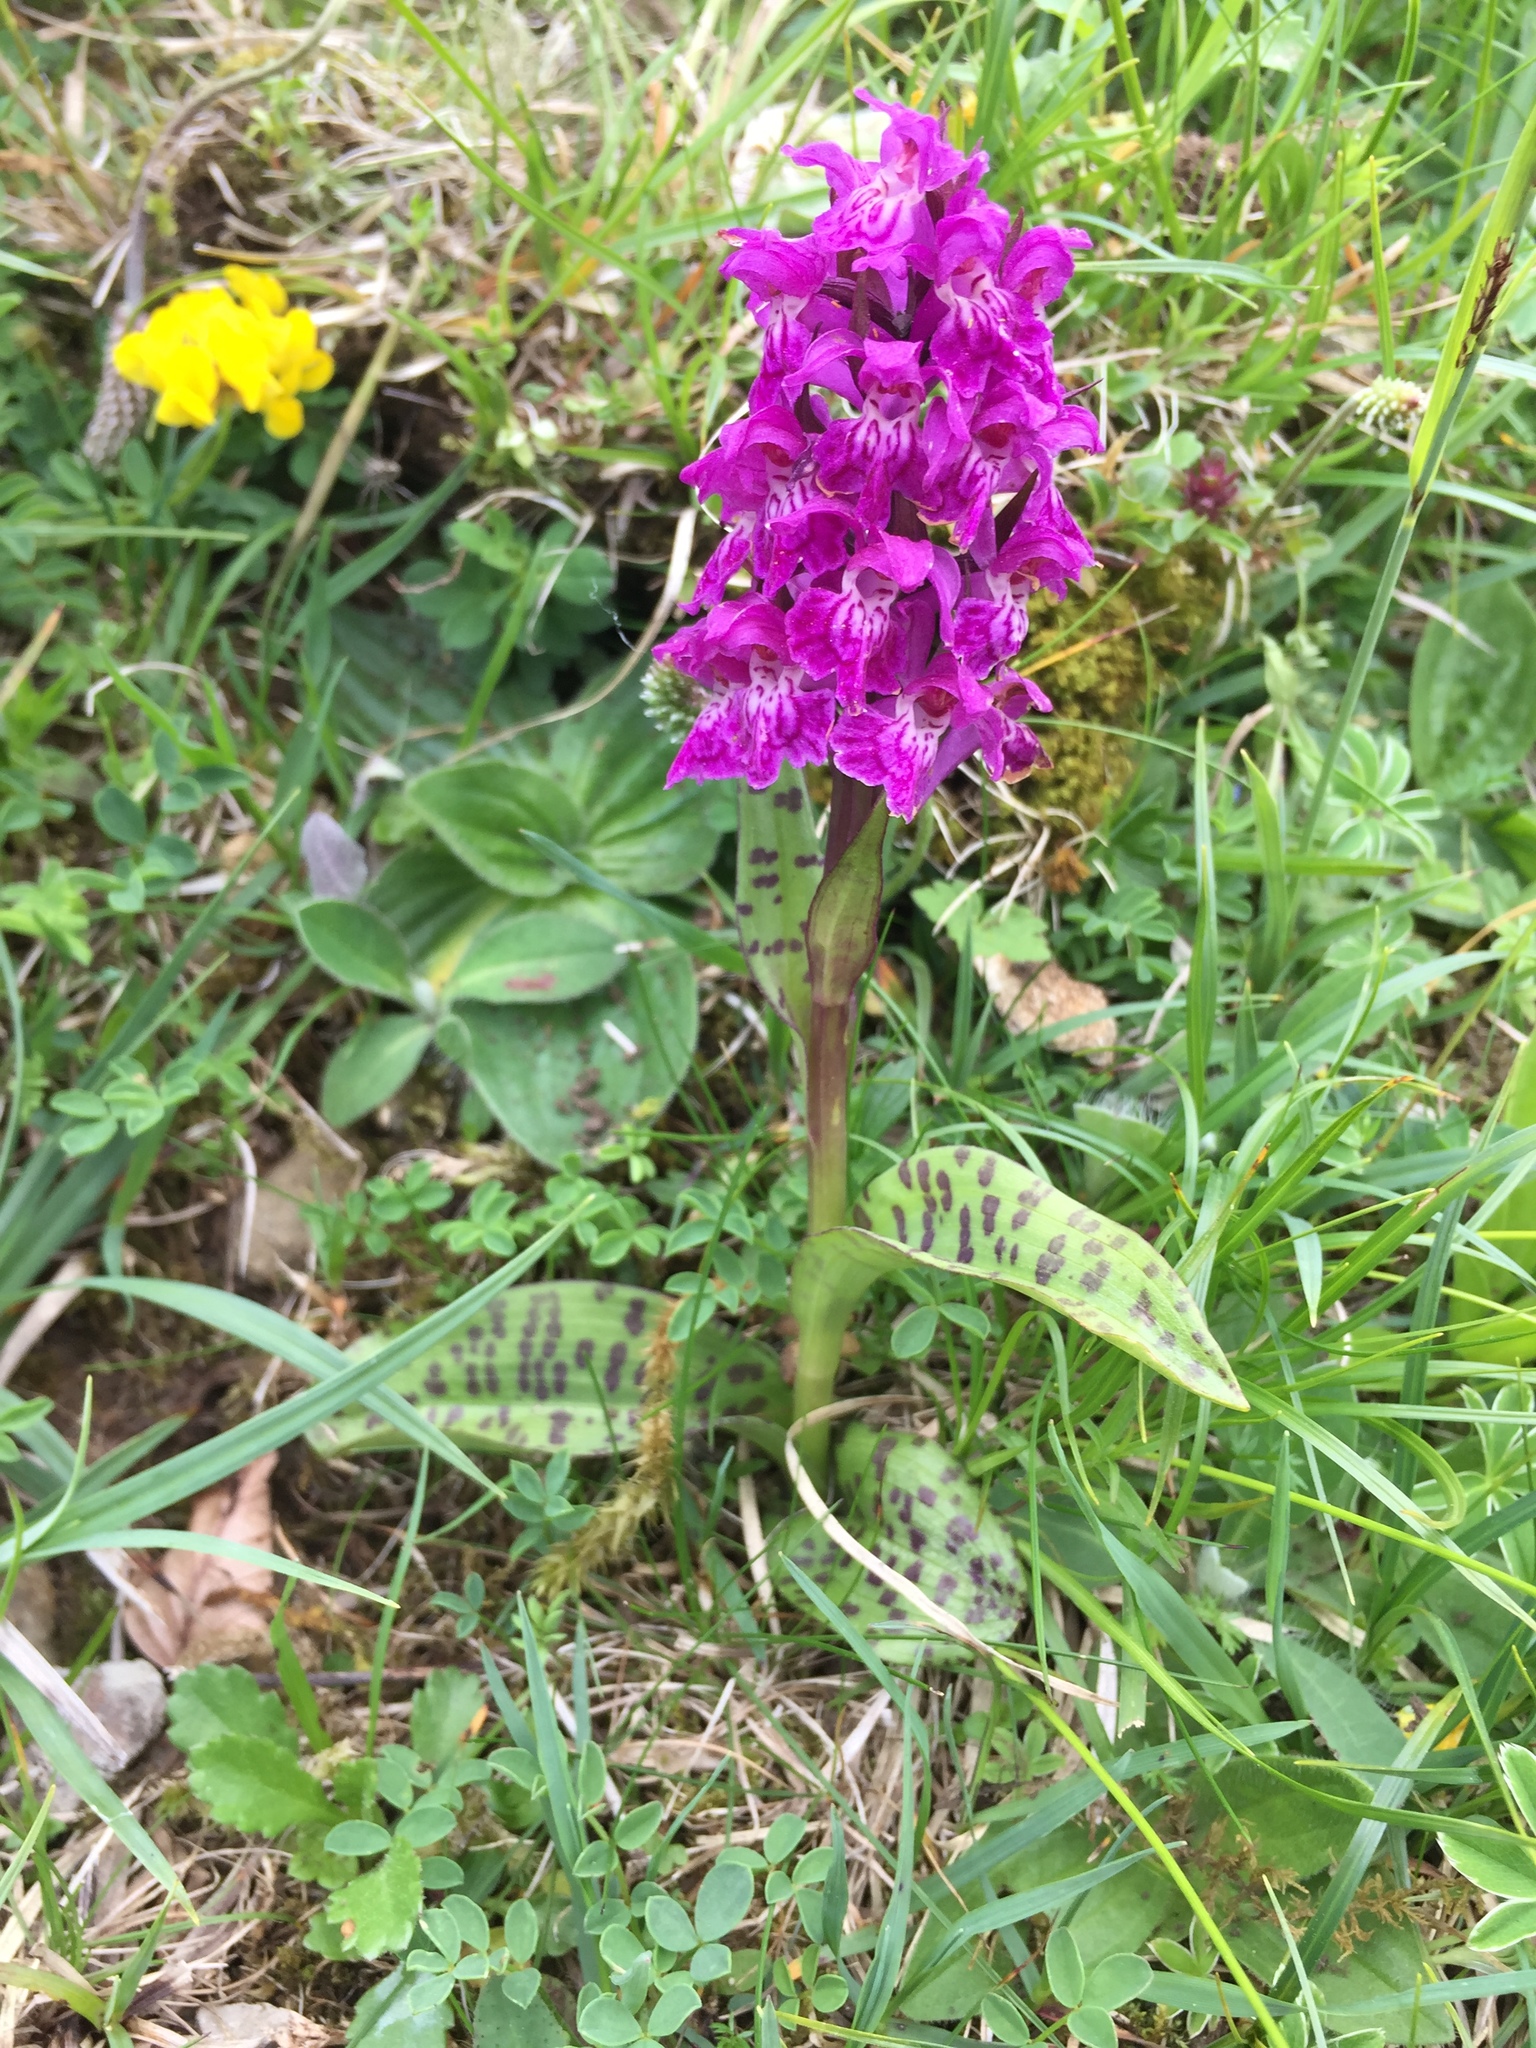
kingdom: Plantae
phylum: Tracheophyta
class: Liliopsida
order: Asparagales
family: Orchidaceae
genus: Dactylorhiza
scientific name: Dactylorhiza majalis
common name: Marsh orchid
